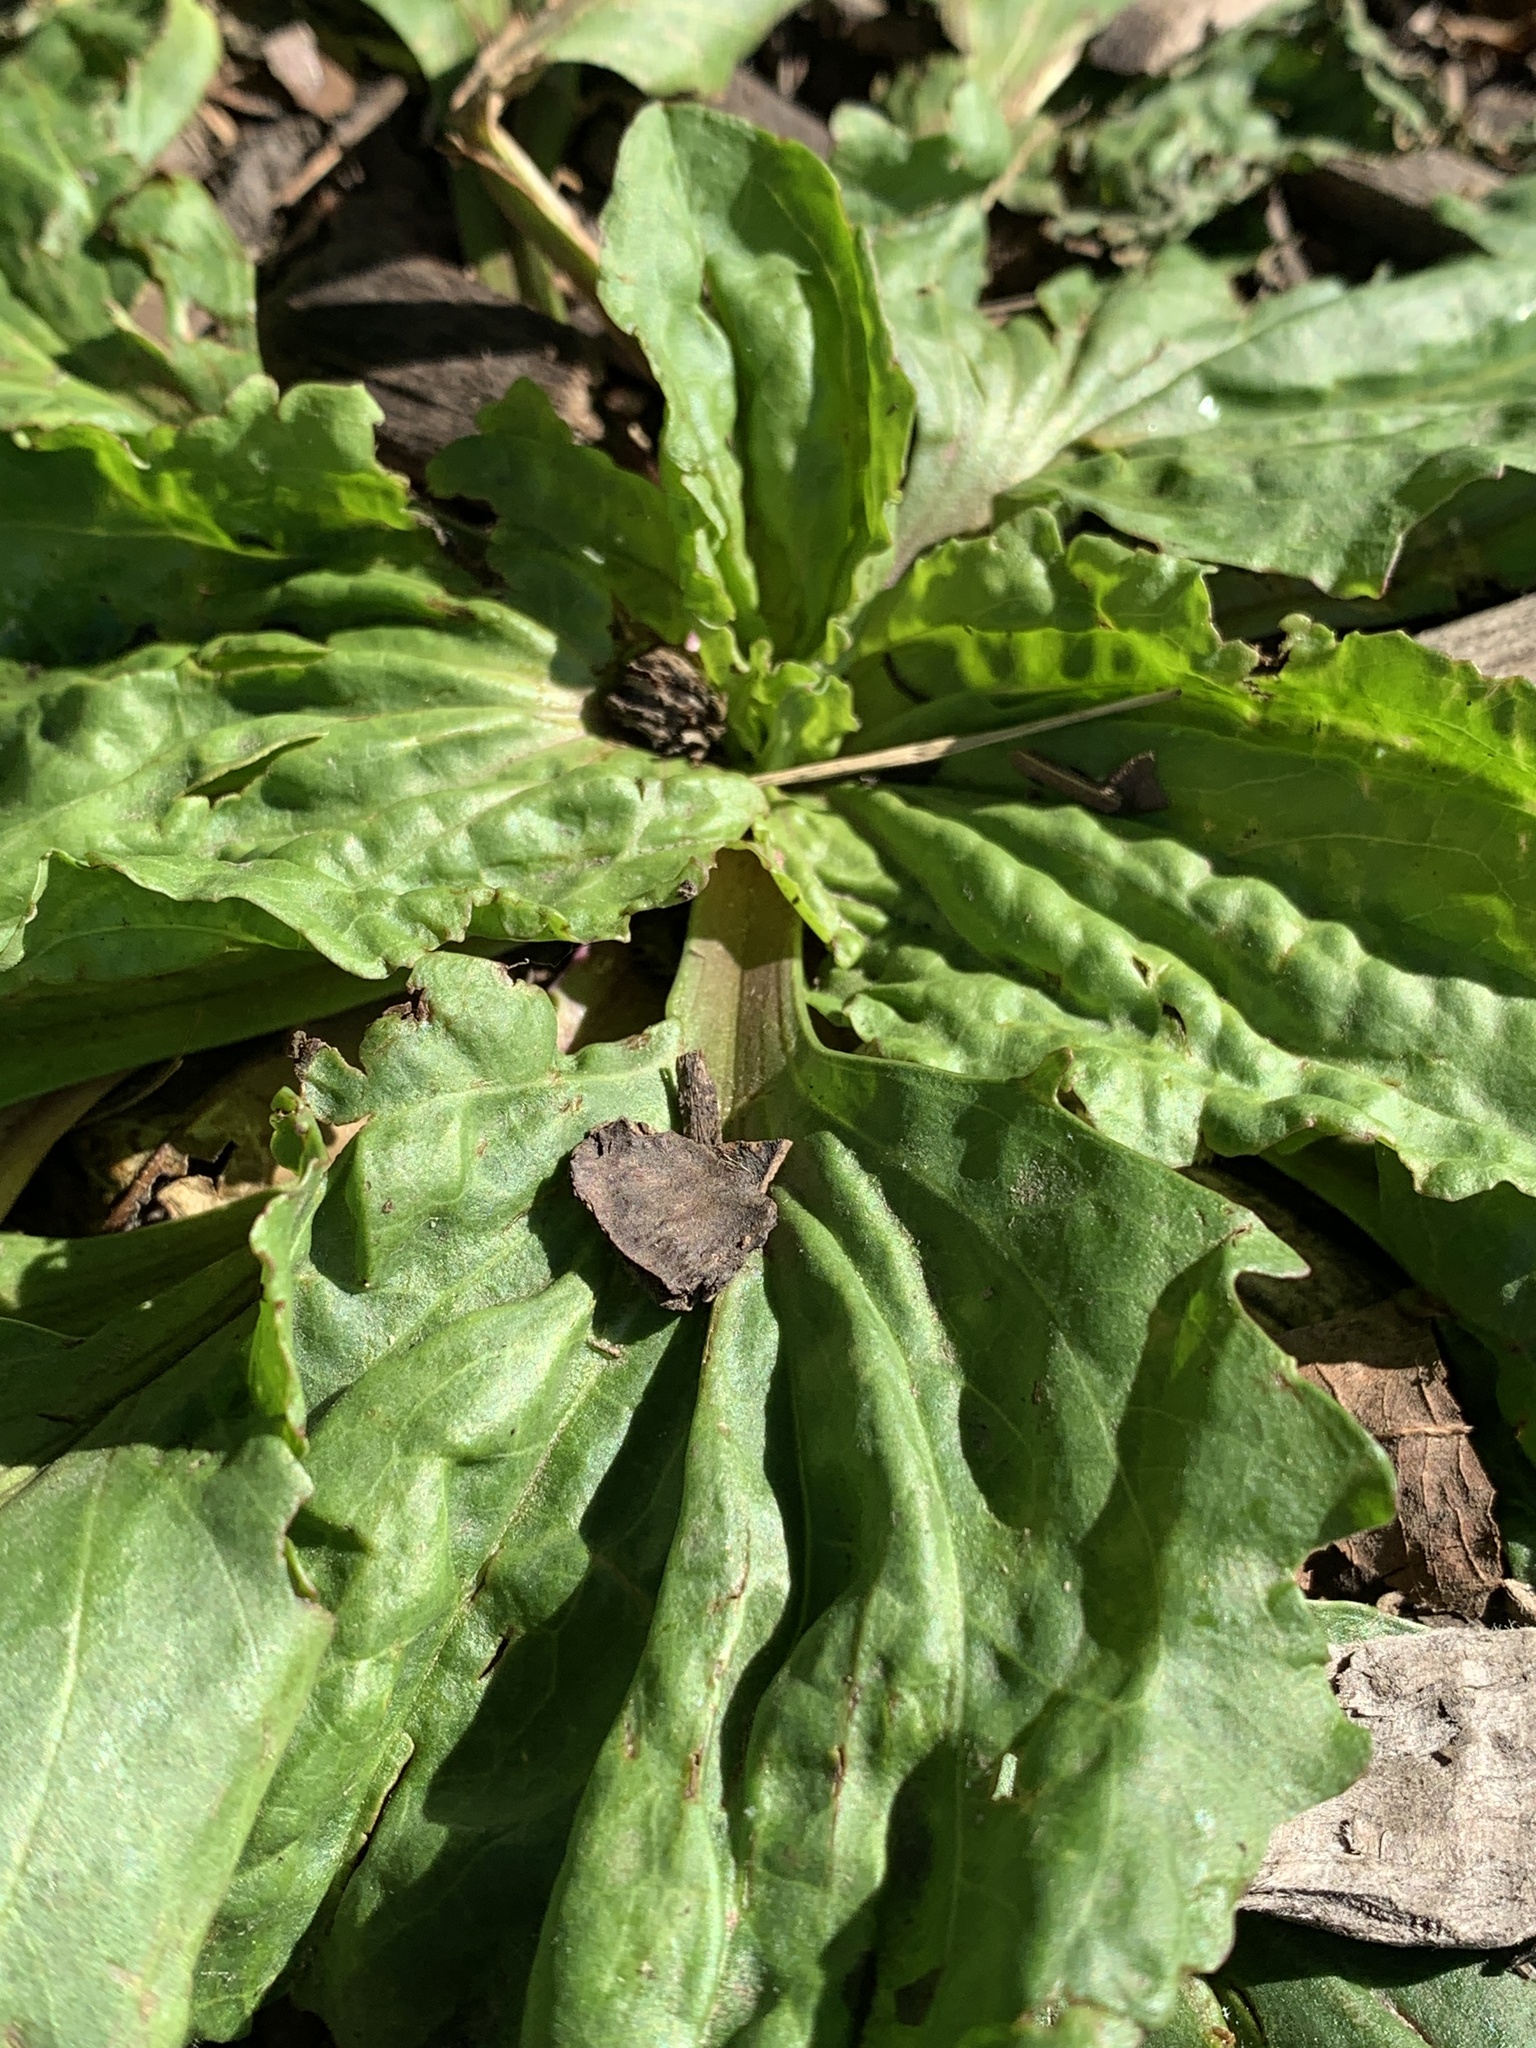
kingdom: Plantae
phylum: Tracheophyta
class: Magnoliopsida
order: Lamiales
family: Plantaginaceae
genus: Plantago
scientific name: Plantago rugelii
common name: American plantain
